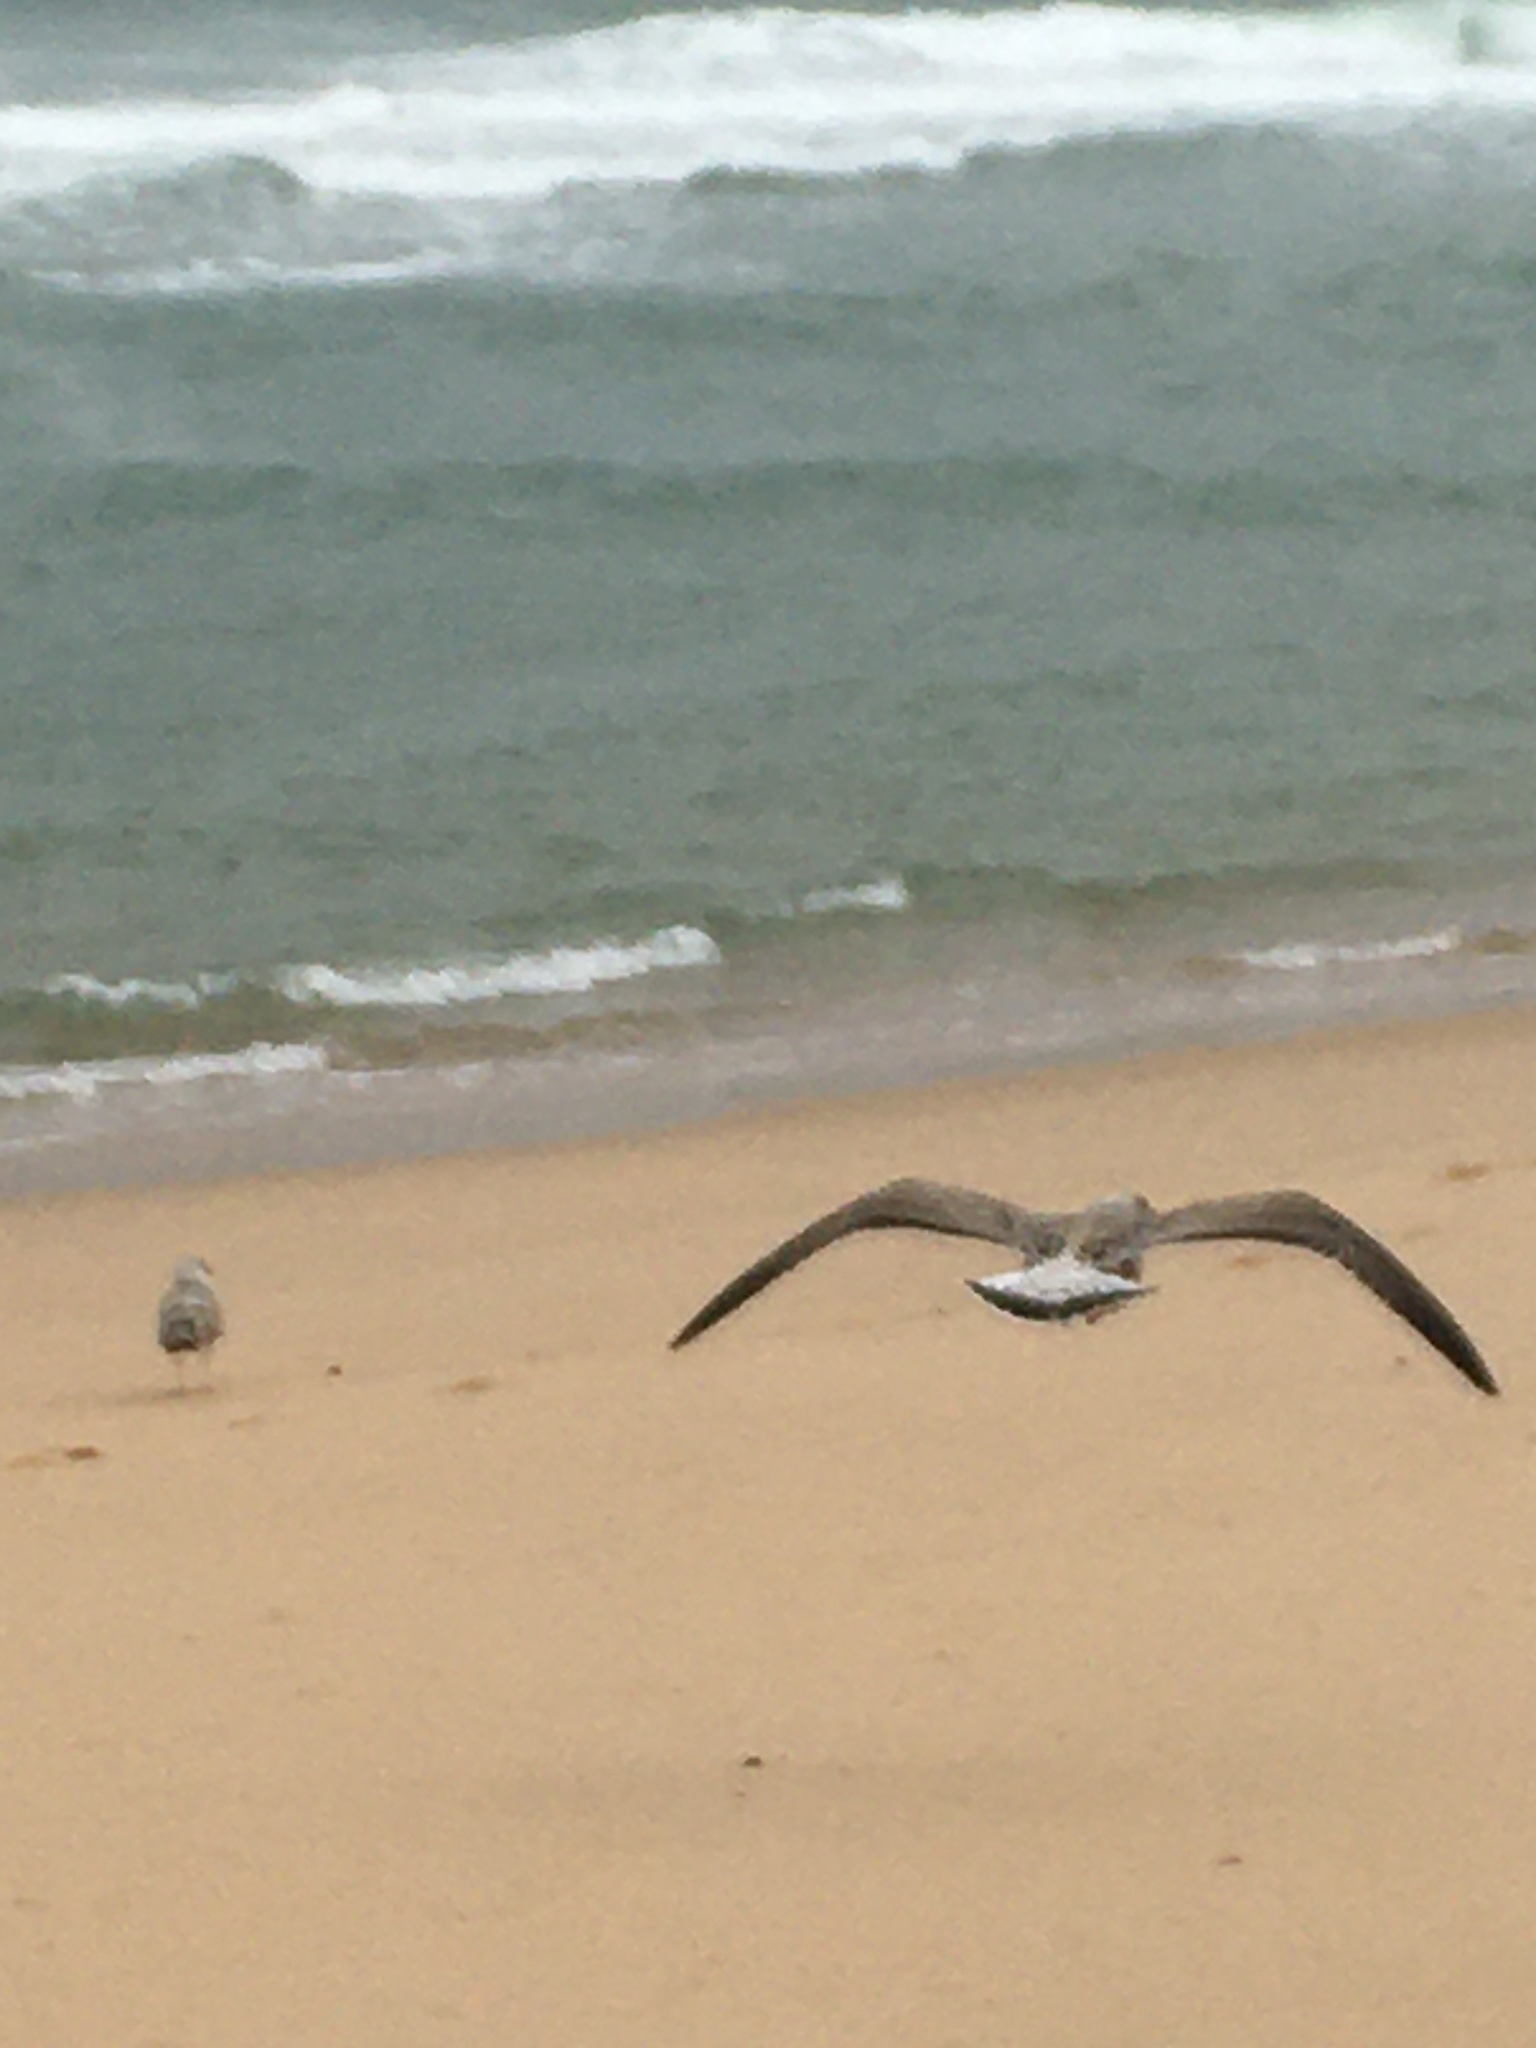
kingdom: Animalia
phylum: Chordata
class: Aves
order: Charadriiformes
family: Laridae
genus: Larus
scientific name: Larus
